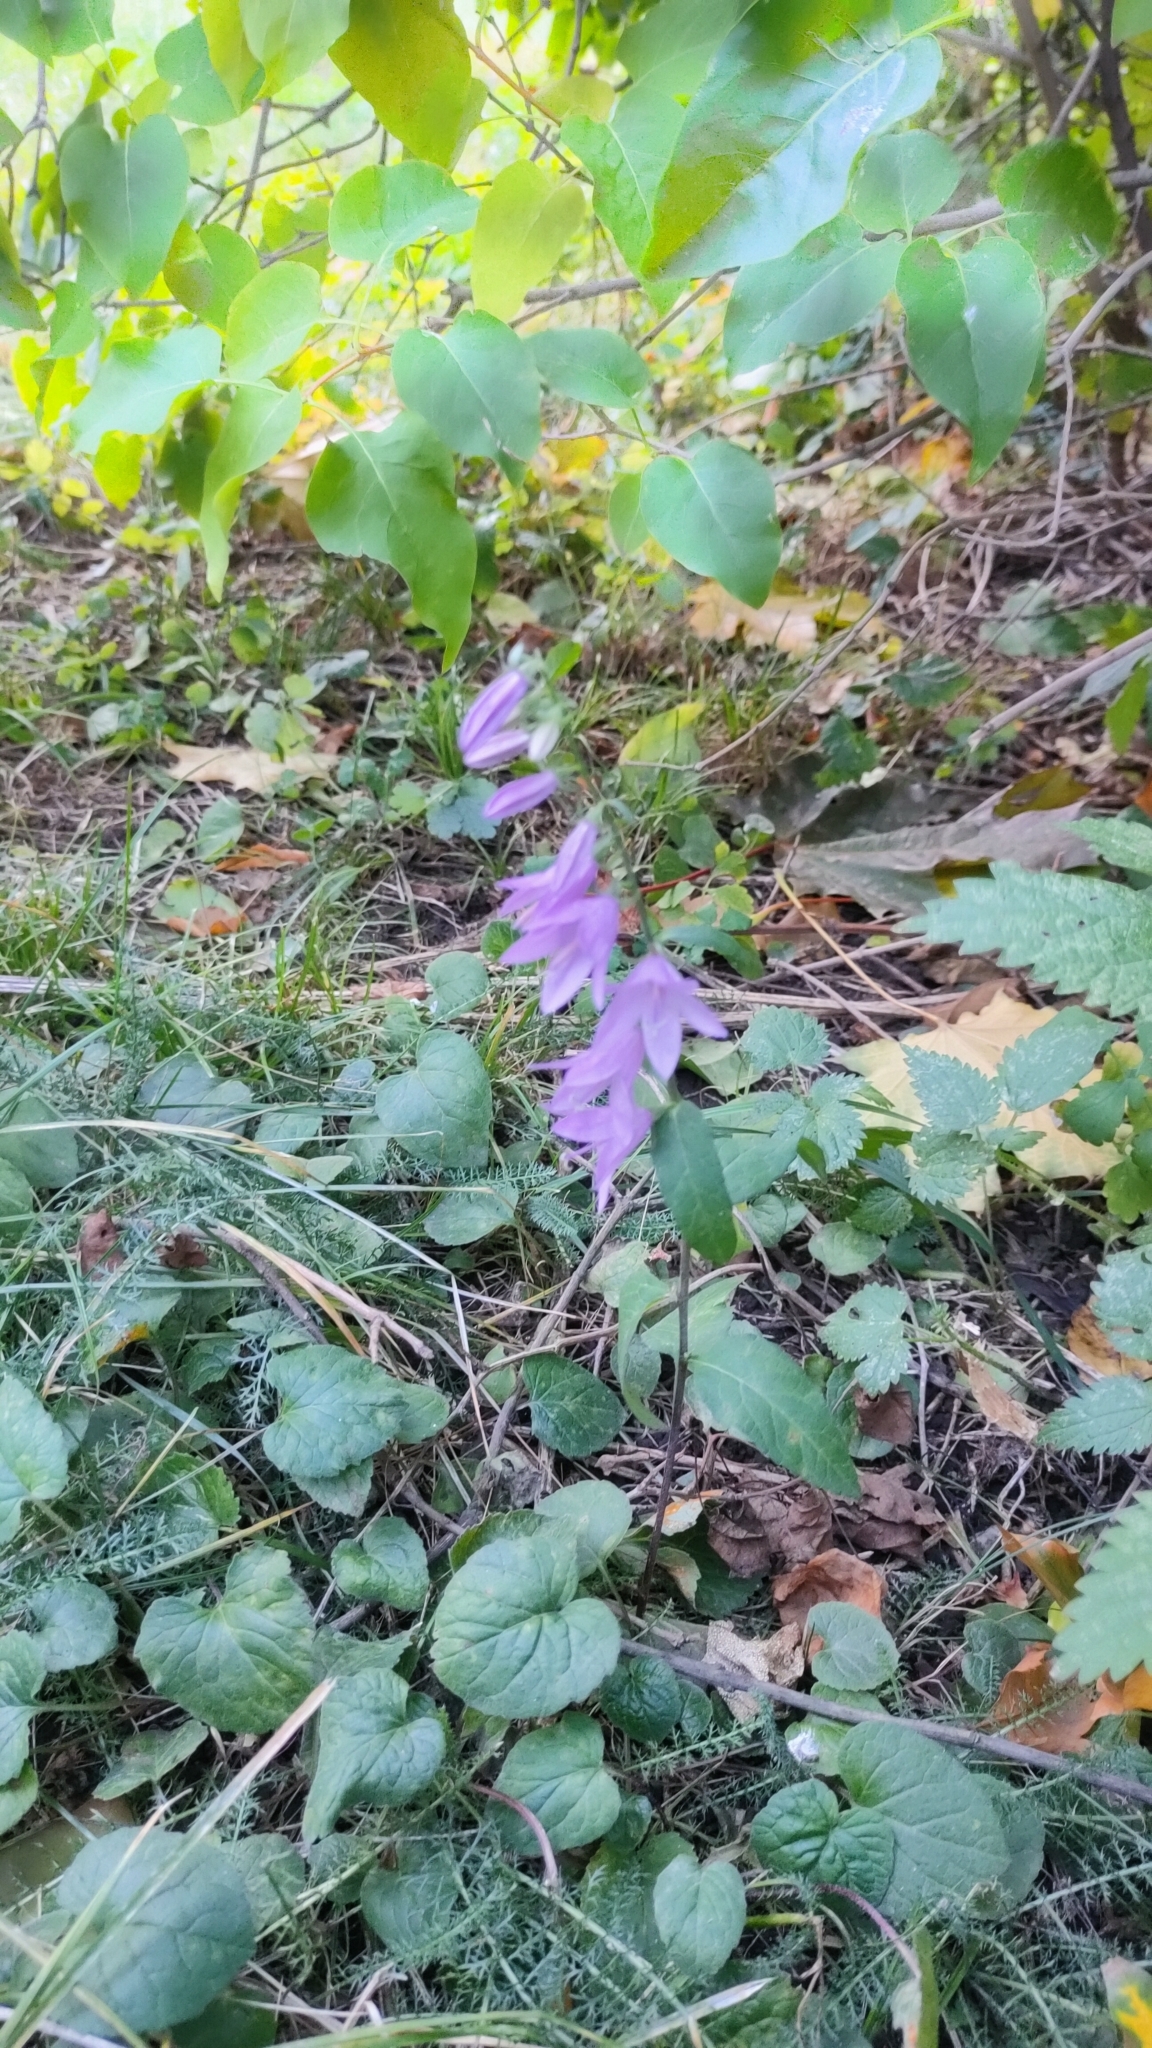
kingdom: Plantae
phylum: Tracheophyta
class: Magnoliopsida
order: Asterales
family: Campanulaceae
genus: Campanula
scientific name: Campanula rapunculoides
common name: Creeping bellflower
